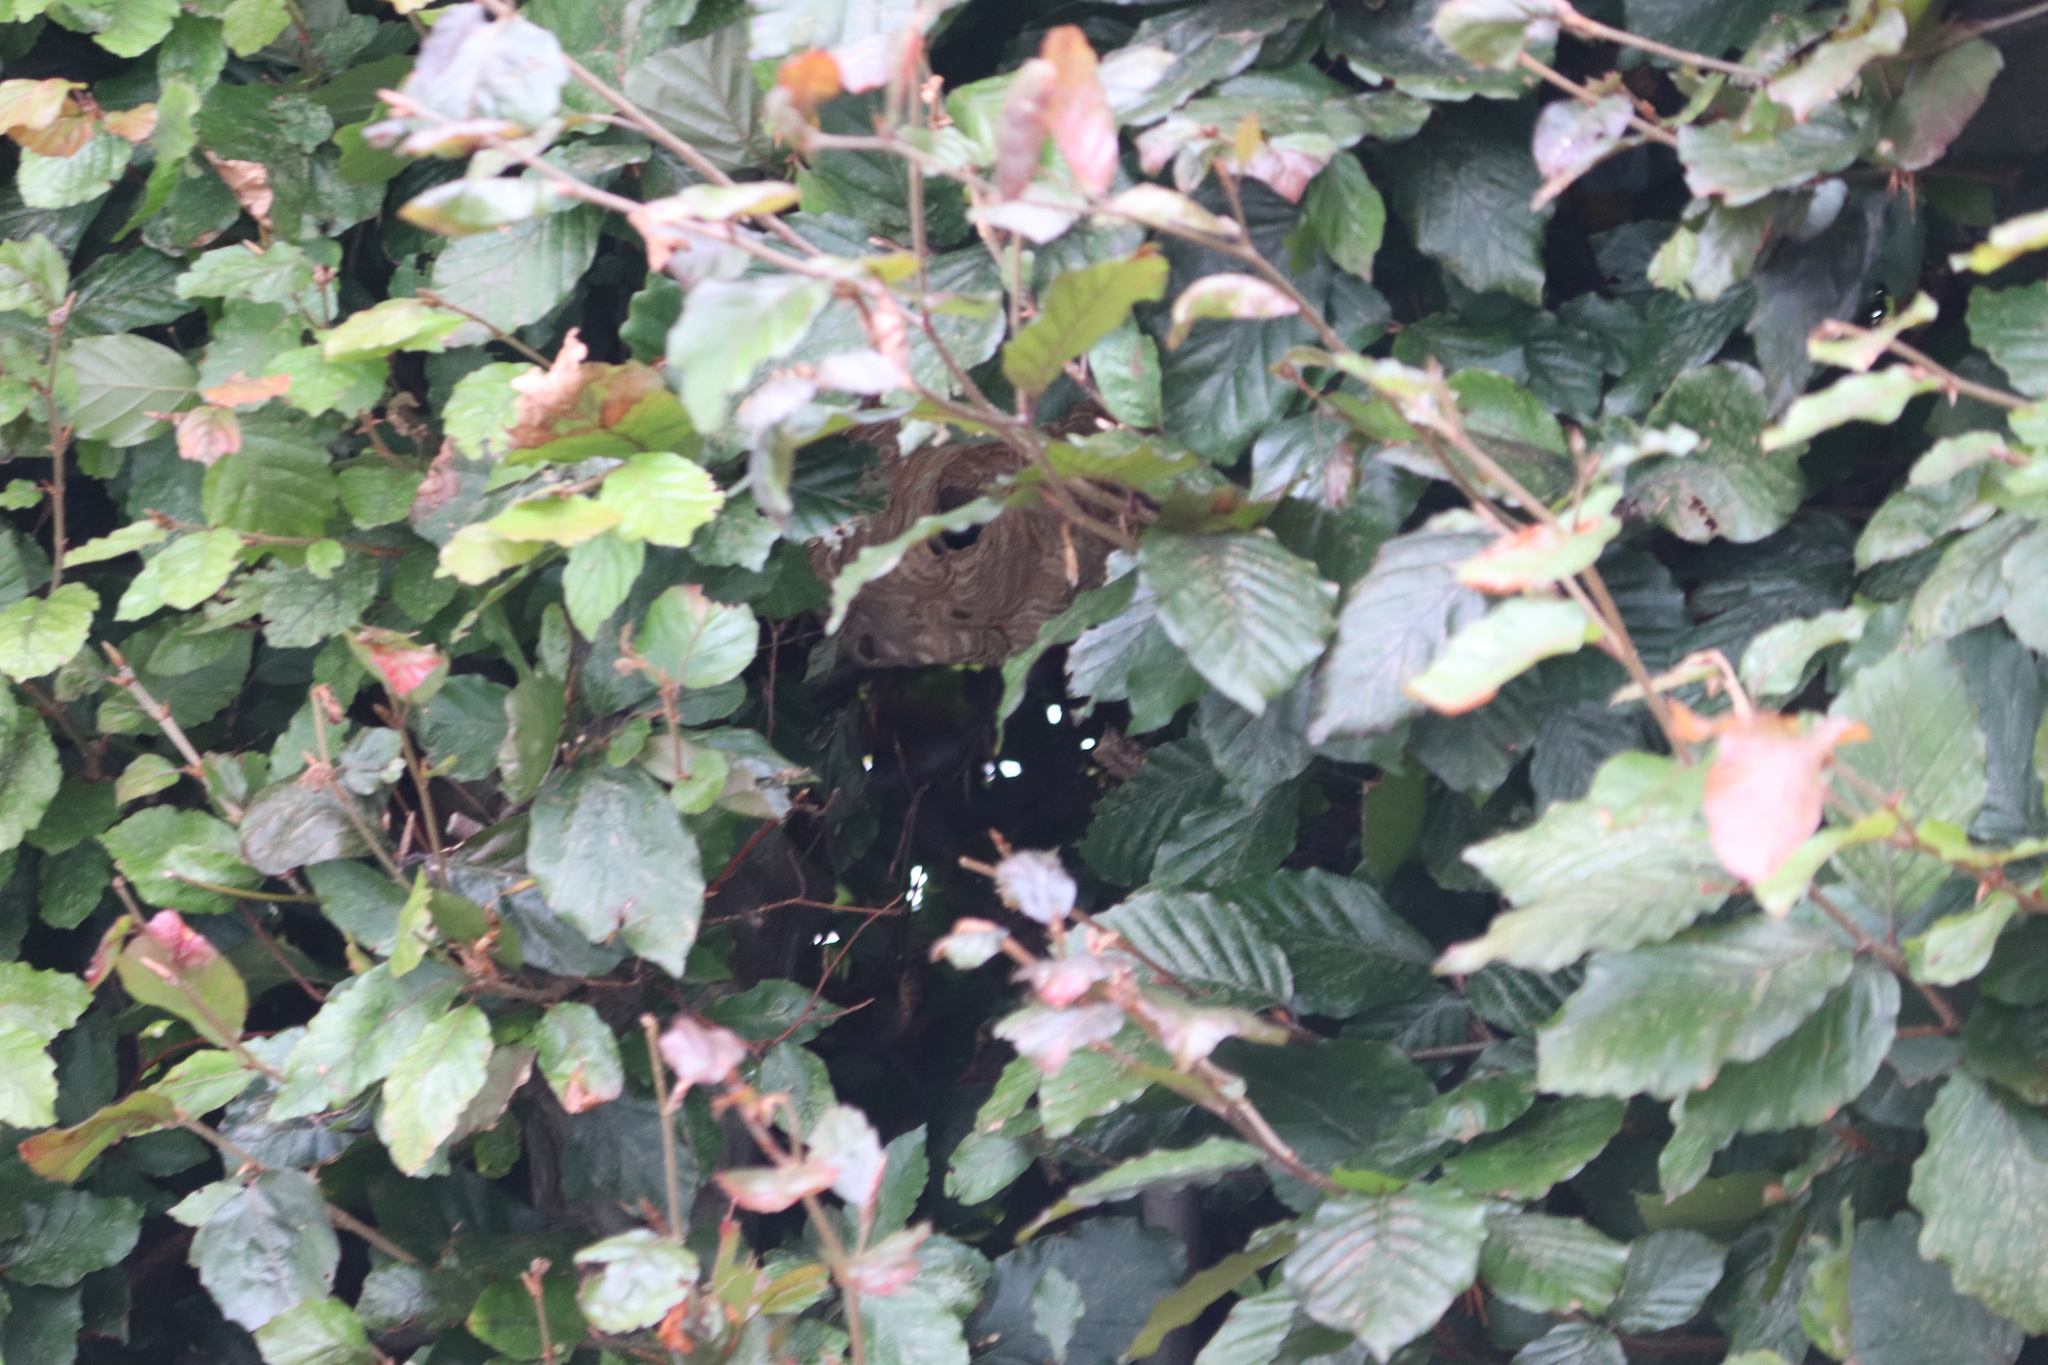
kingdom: Animalia
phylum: Arthropoda
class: Insecta
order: Hymenoptera
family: Vespidae
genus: Vespa
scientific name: Vespa velutina
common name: Asian hornet
